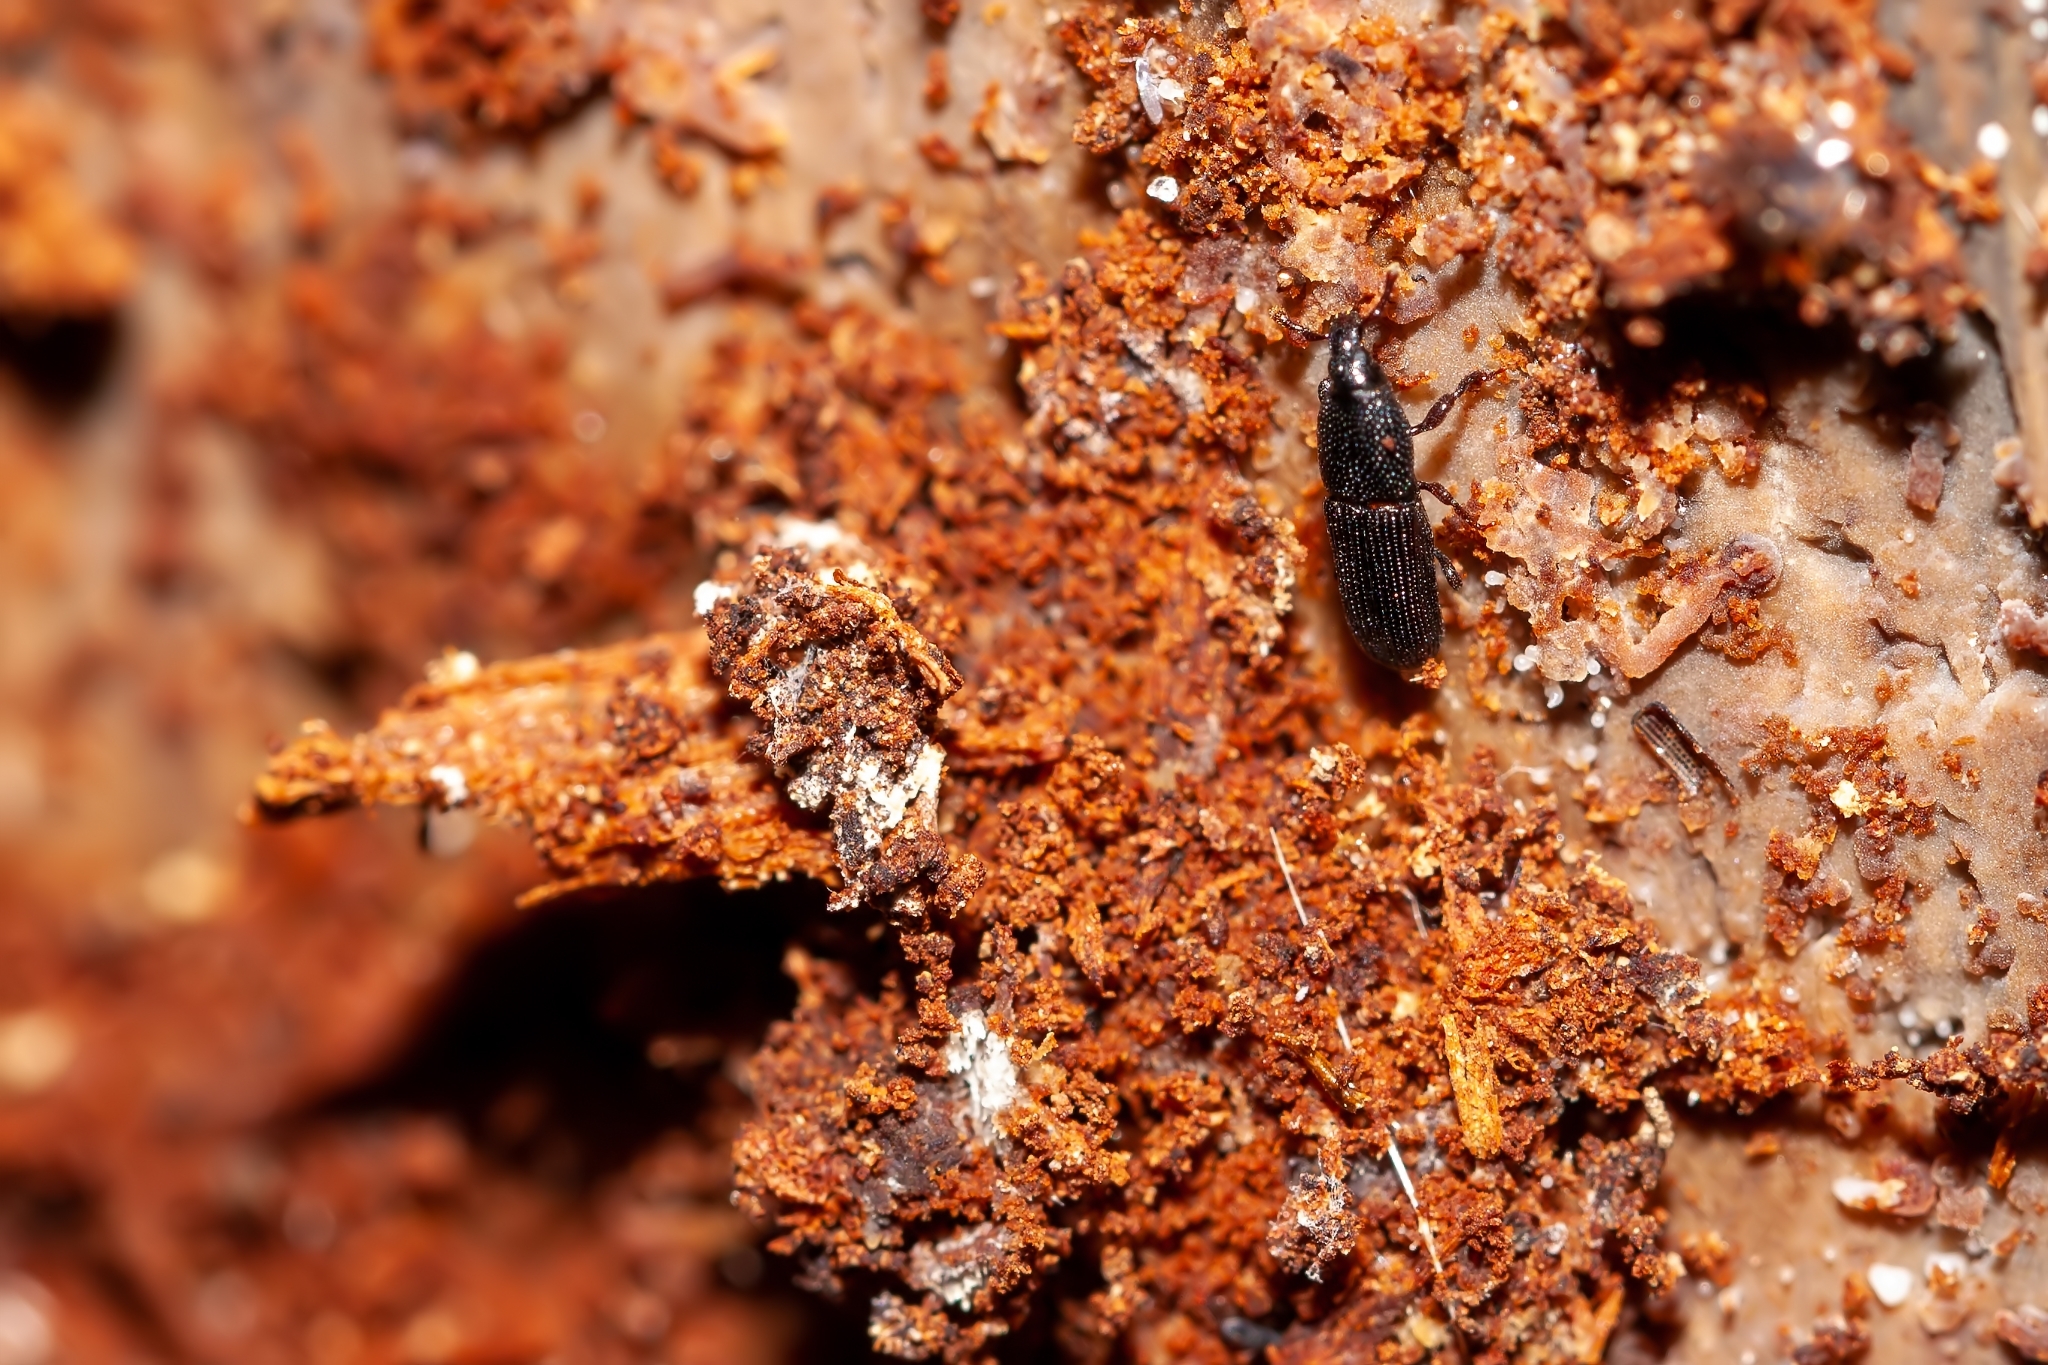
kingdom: Animalia
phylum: Arthropoda
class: Insecta
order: Coleoptera
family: Curculionidae
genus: Cossonus
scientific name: Cossonus corticola
